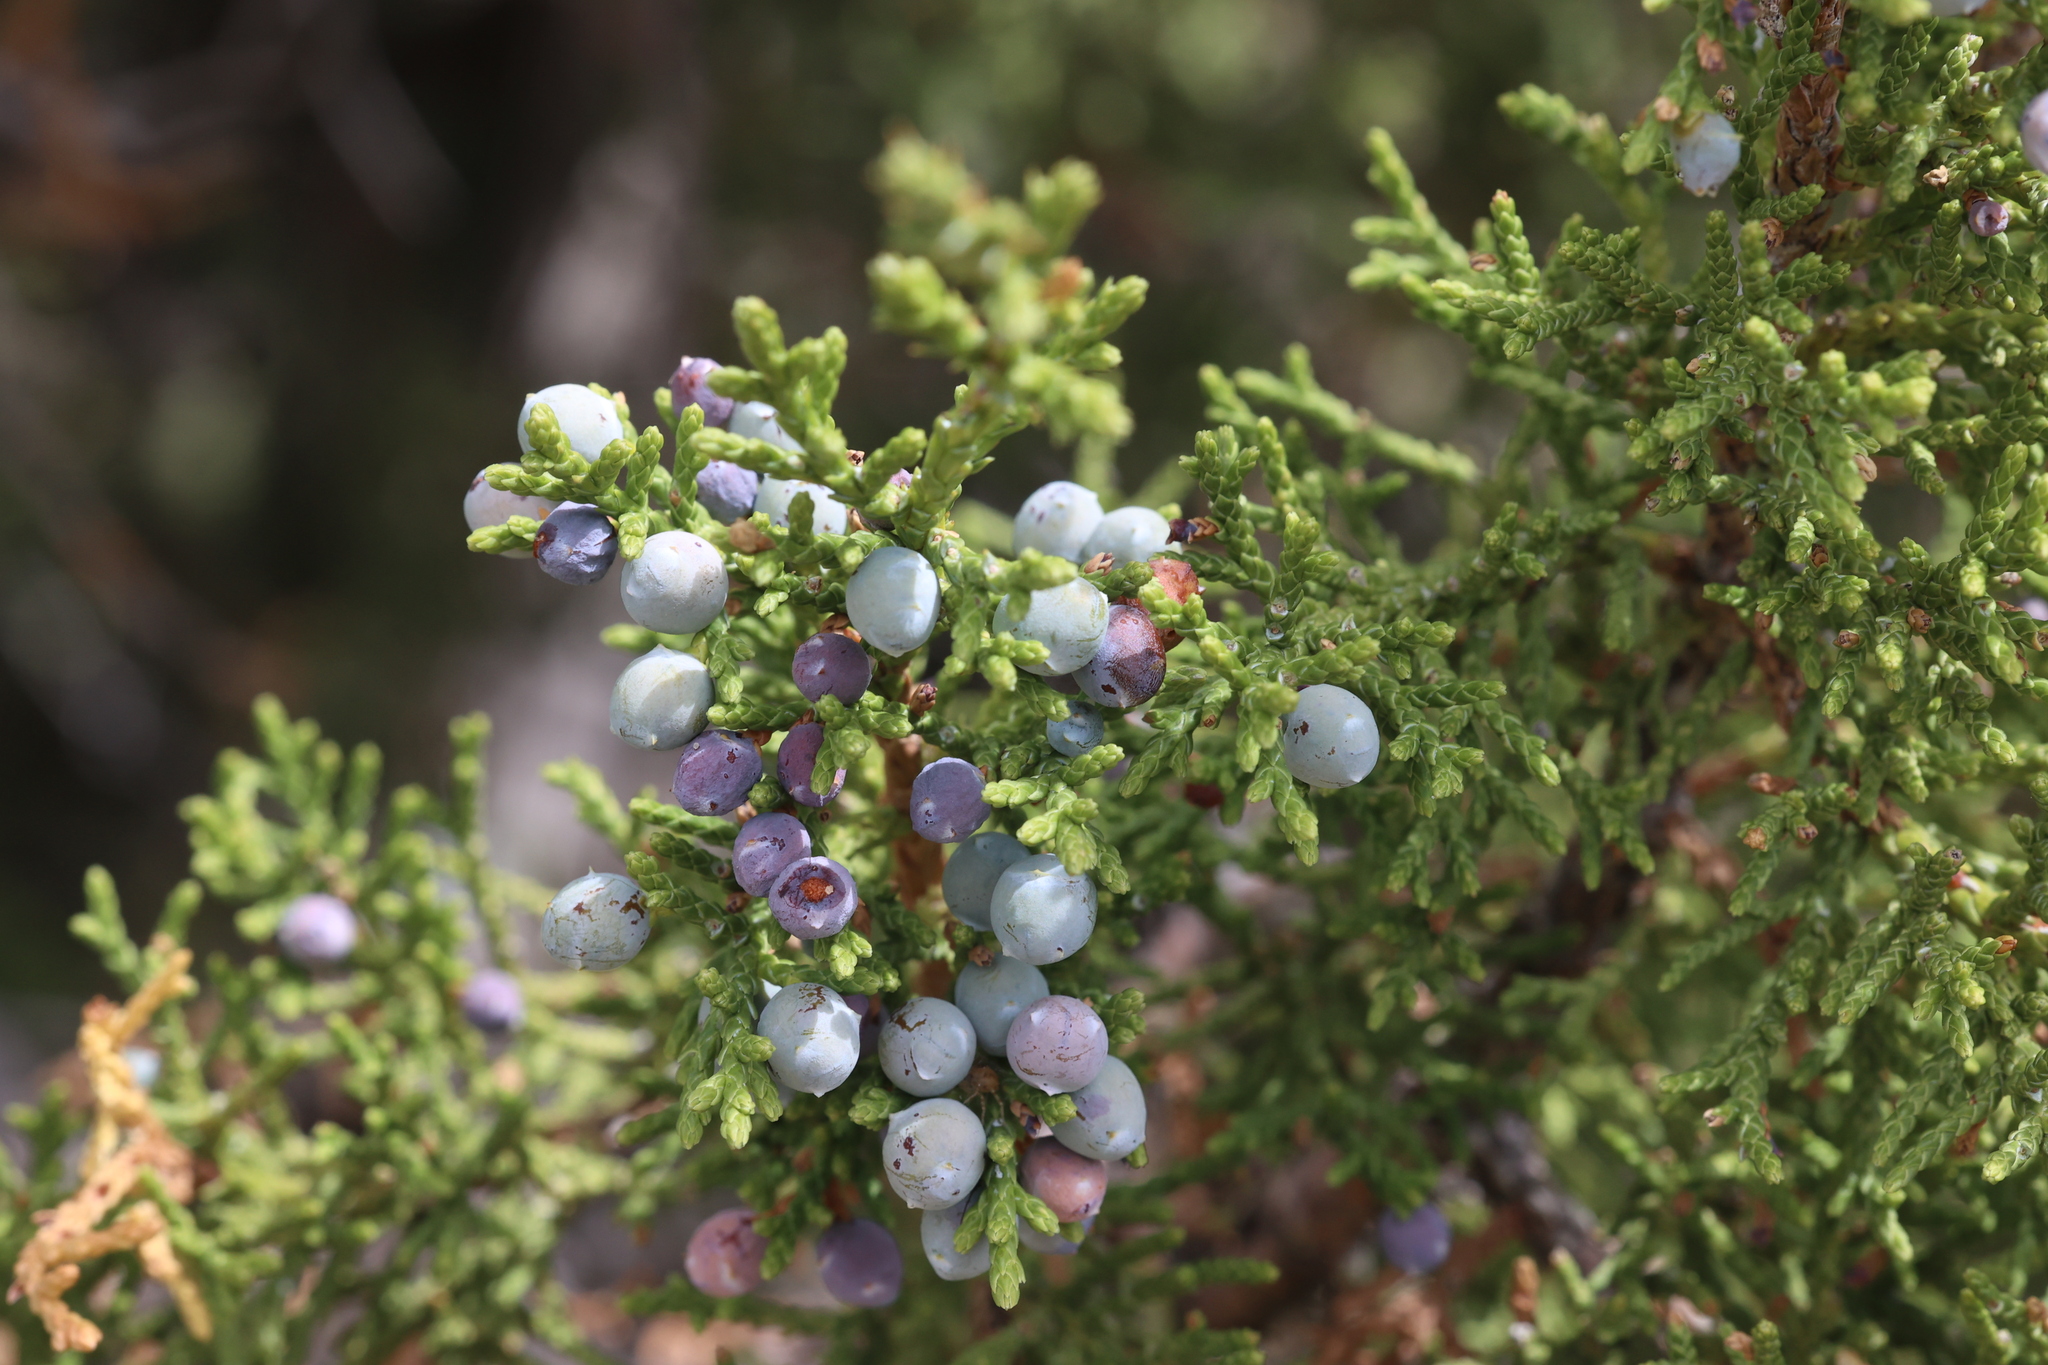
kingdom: Plantae
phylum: Tracheophyta
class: Pinopsida
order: Pinales
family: Cupressaceae
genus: Juniperus
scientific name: Juniperus monosperma
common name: One-seed juniper
